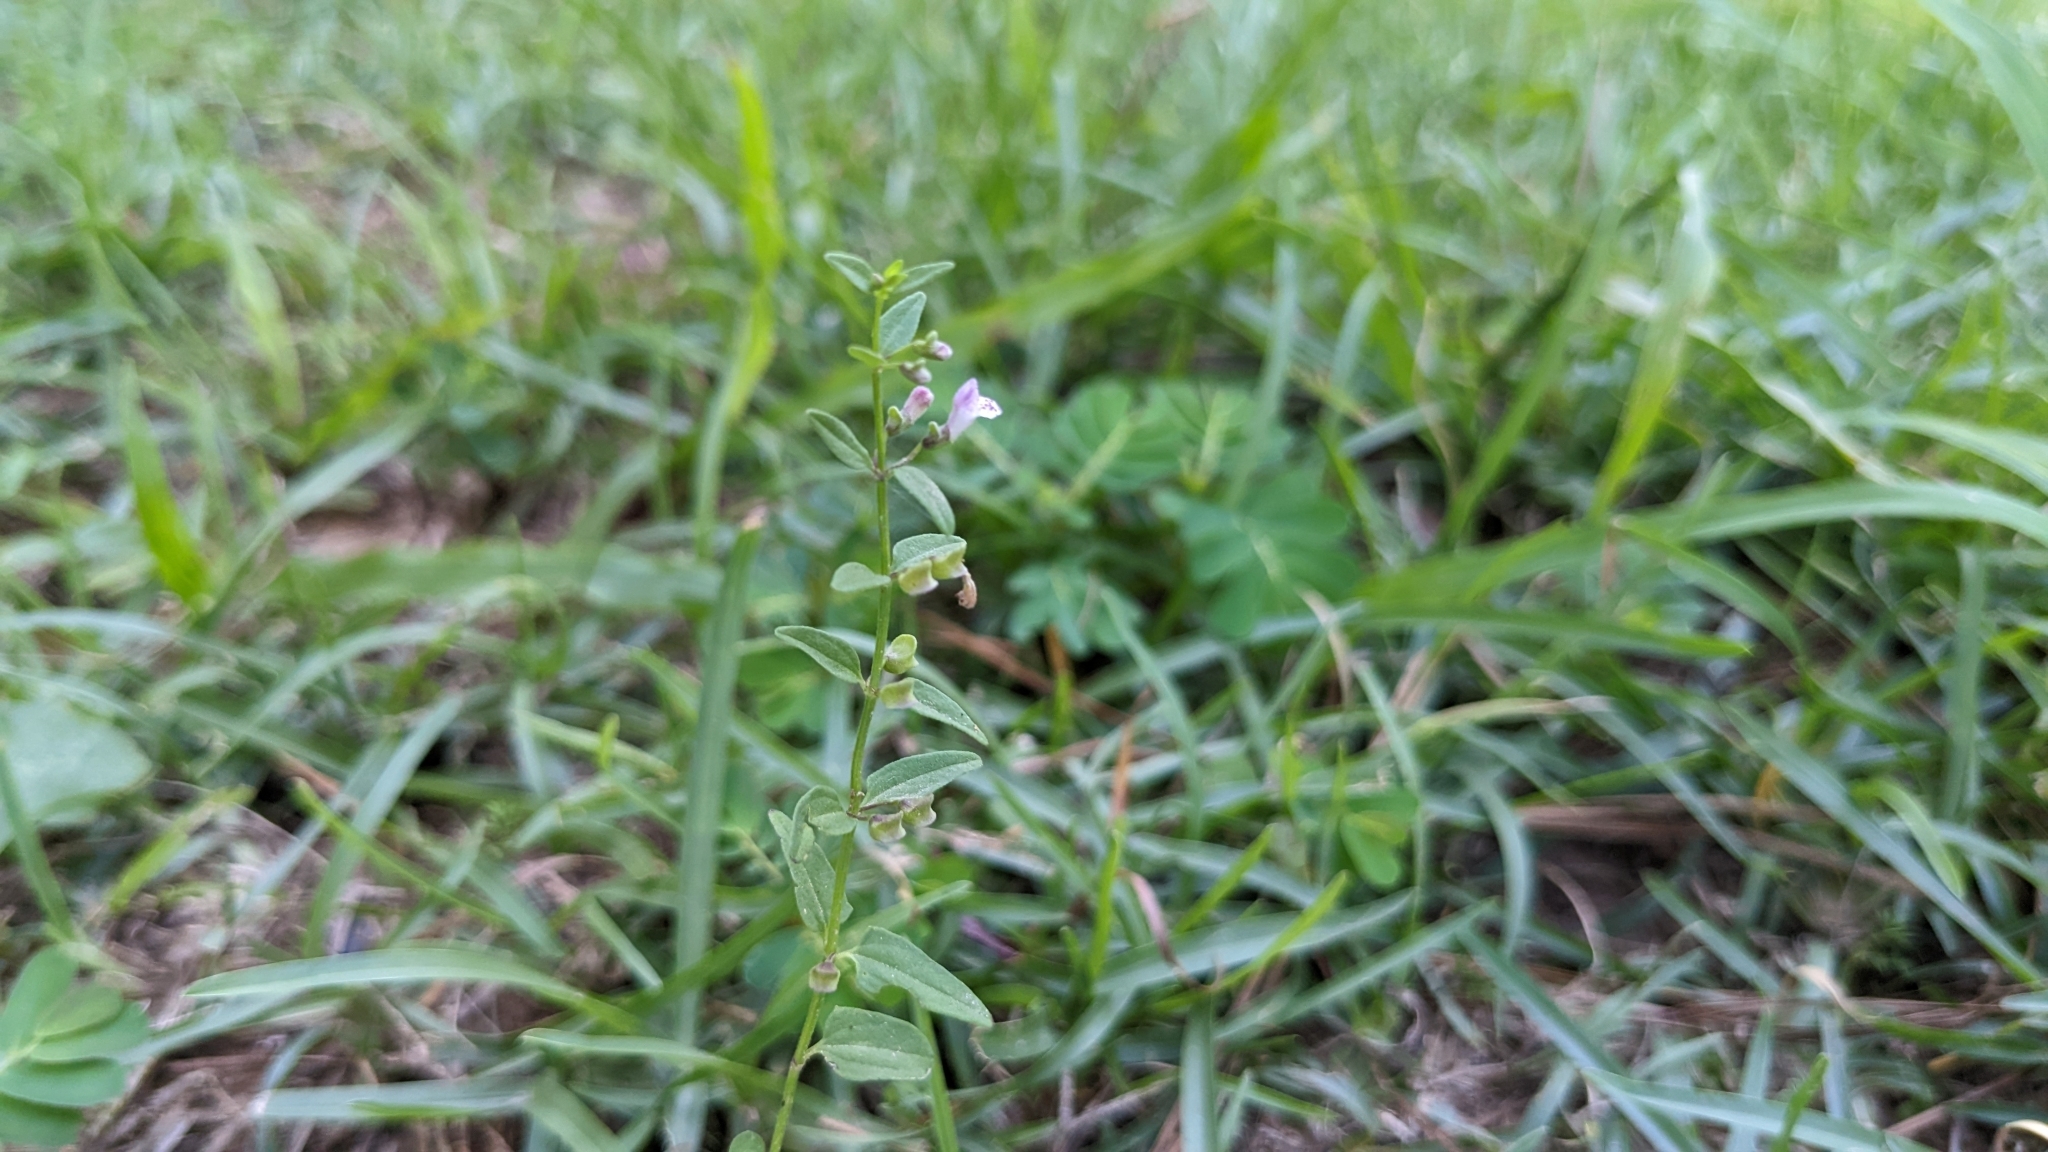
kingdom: Plantae
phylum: Tracheophyta
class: Magnoliopsida
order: Lamiales
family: Lamiaceae
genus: Scutellaria
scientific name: Scutellaria racemosa
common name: South american skullcap
